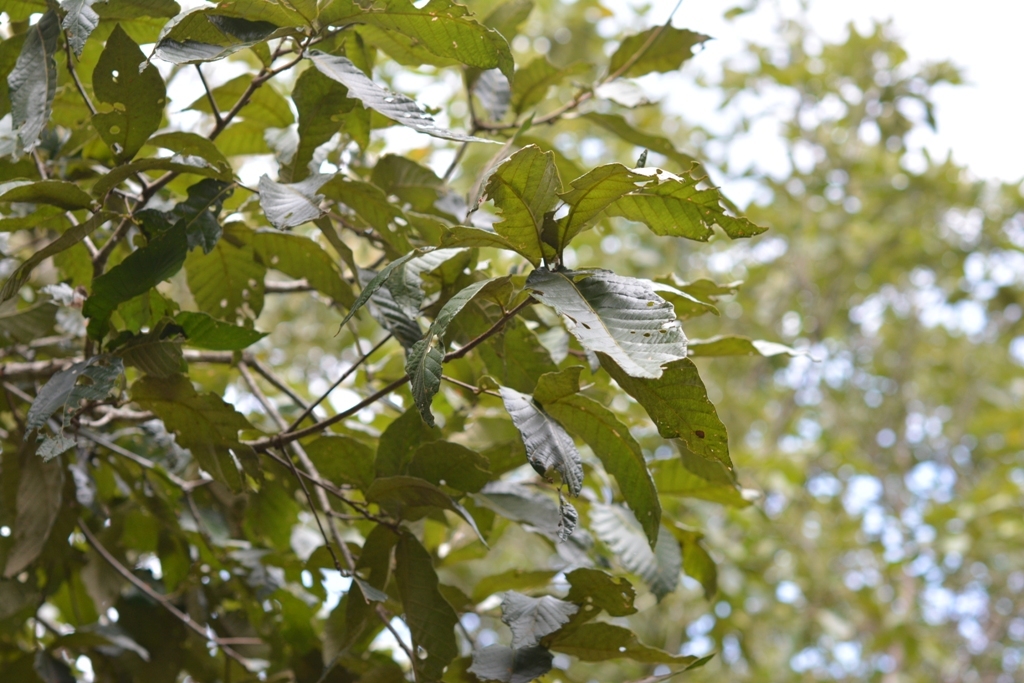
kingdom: Plantae
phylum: Tracheophyta
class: Magnoliopsida
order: Fagales
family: Fagaceae
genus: Quercus
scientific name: Quercus purulhana
